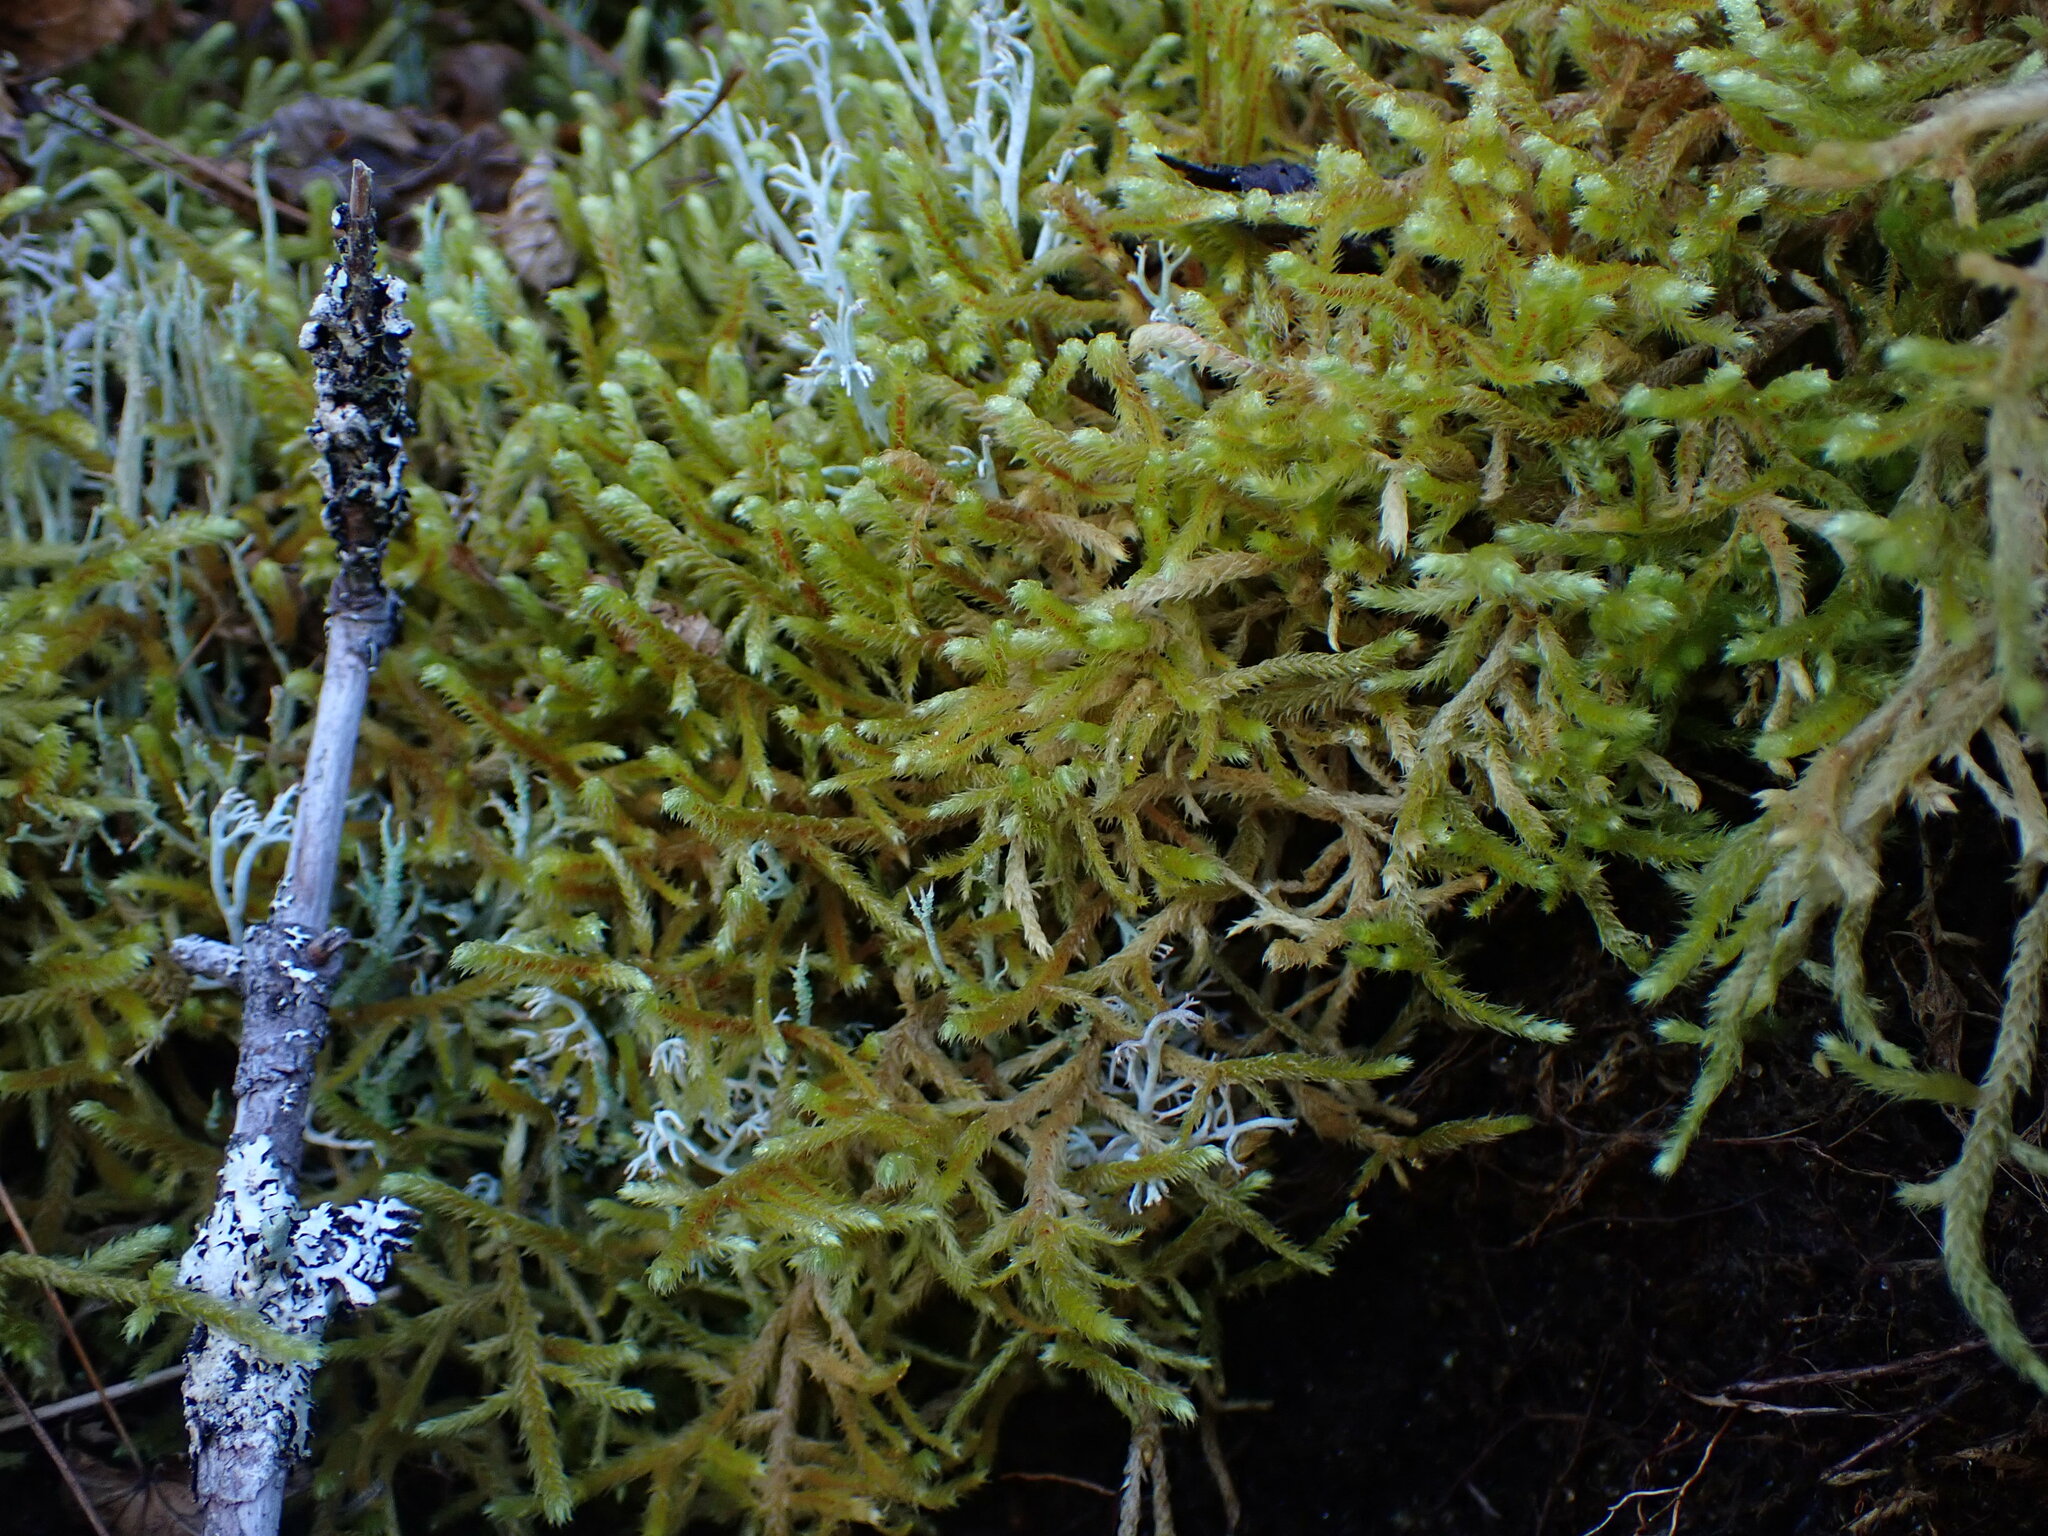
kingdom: Plantae
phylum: Bryophyta
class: Bryopsida
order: Hypnales
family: Antitrichiaceae
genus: Antitrichia
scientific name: Antitrichia curtipendula
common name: Pendulous wing-moss
